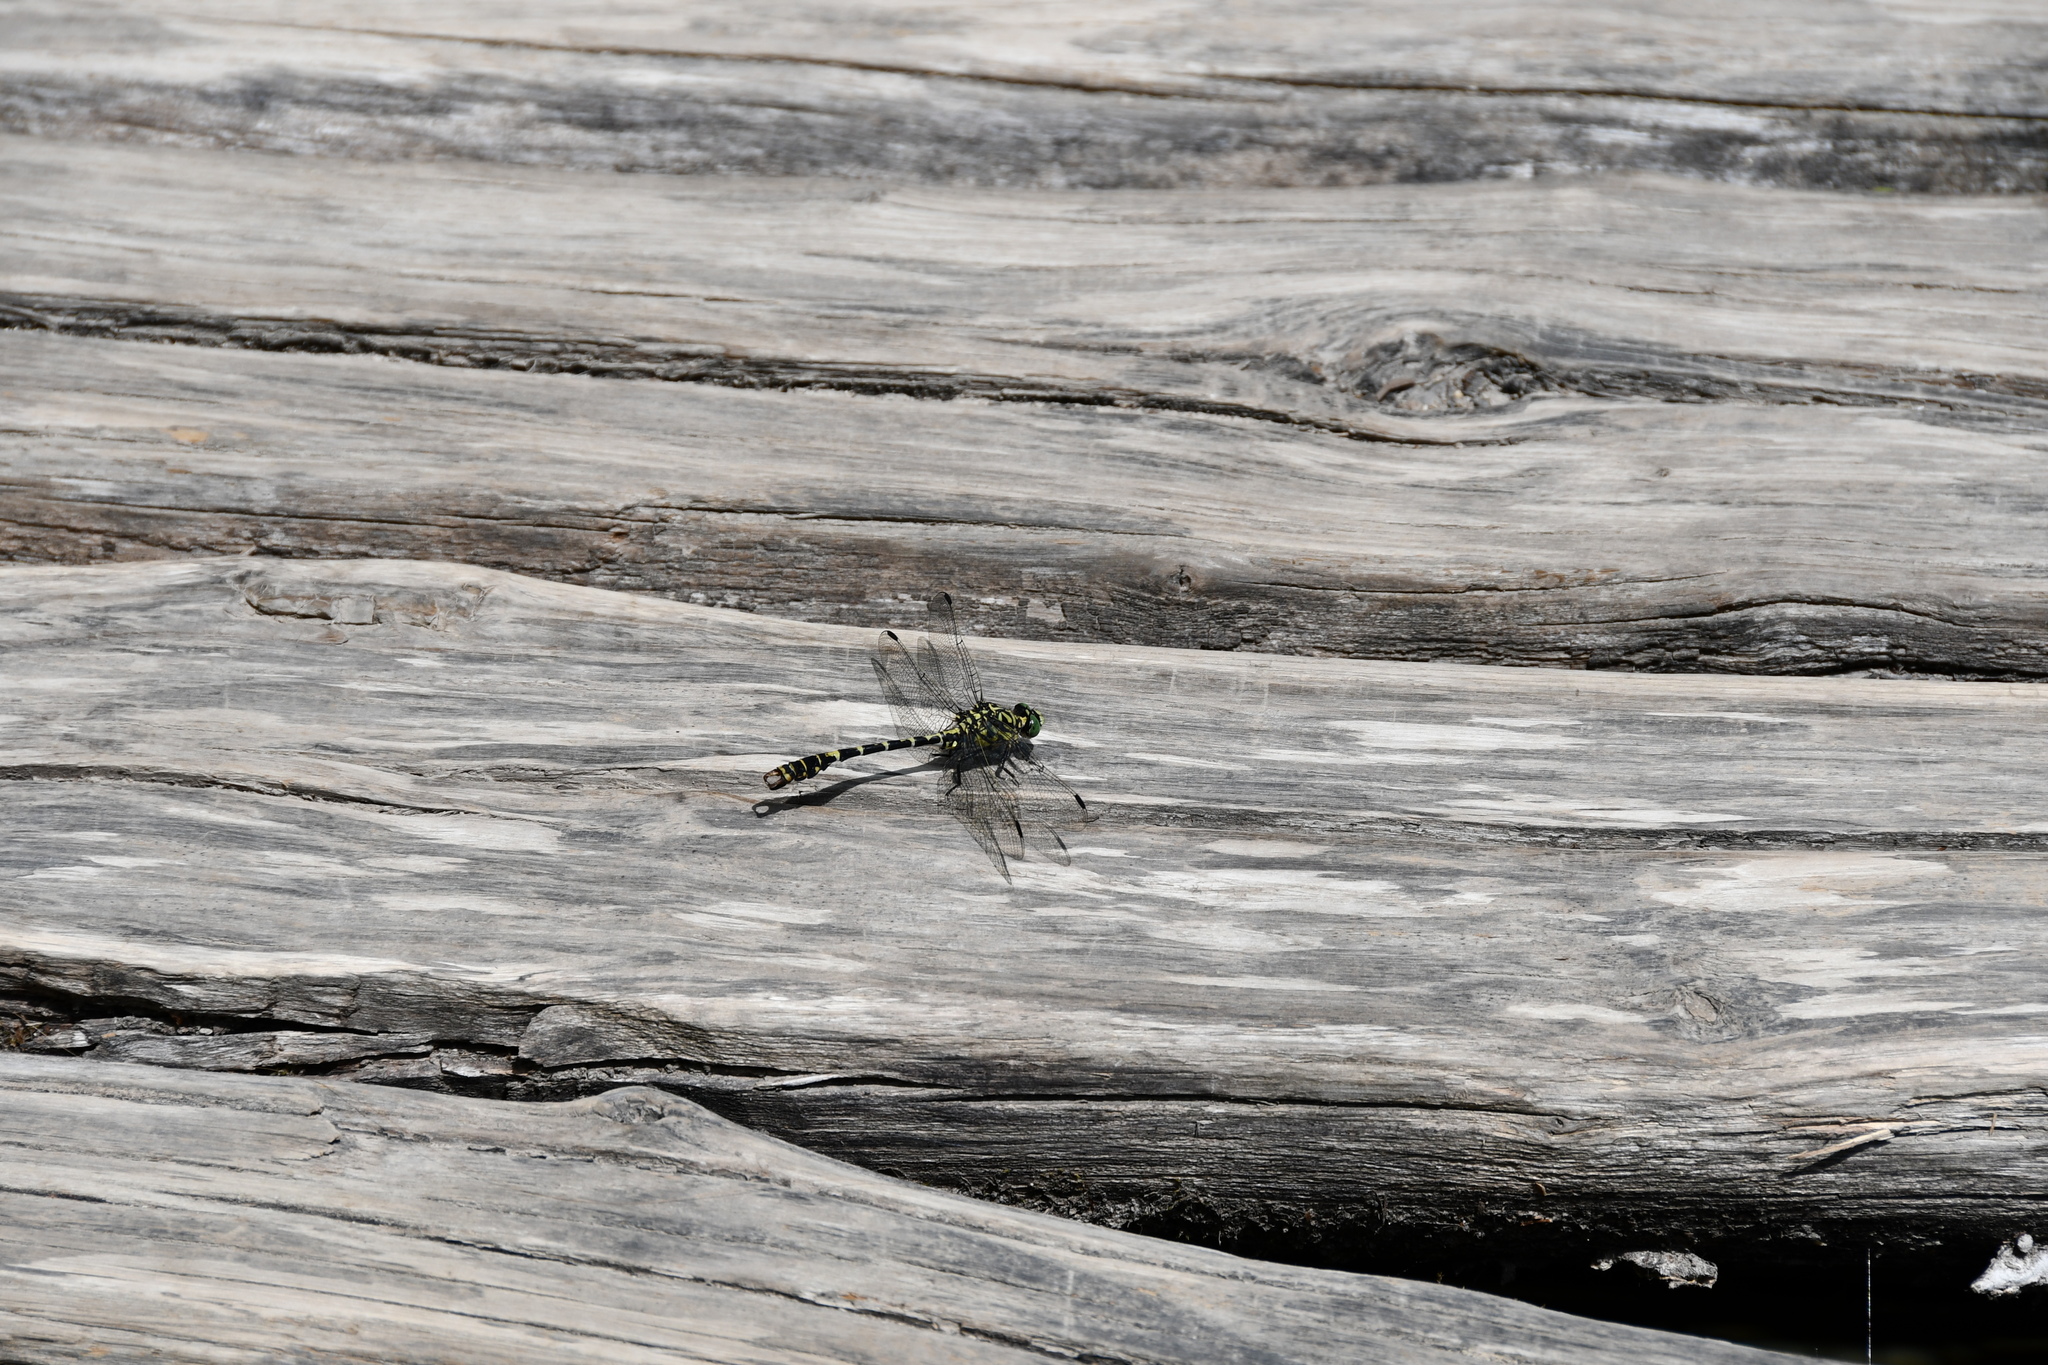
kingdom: Animalia
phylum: Arthropoda
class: Insecta
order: Odonata
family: Gomphidae
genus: Onychogomphus
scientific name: Onychogomphus forcipatus
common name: Small pincertail
